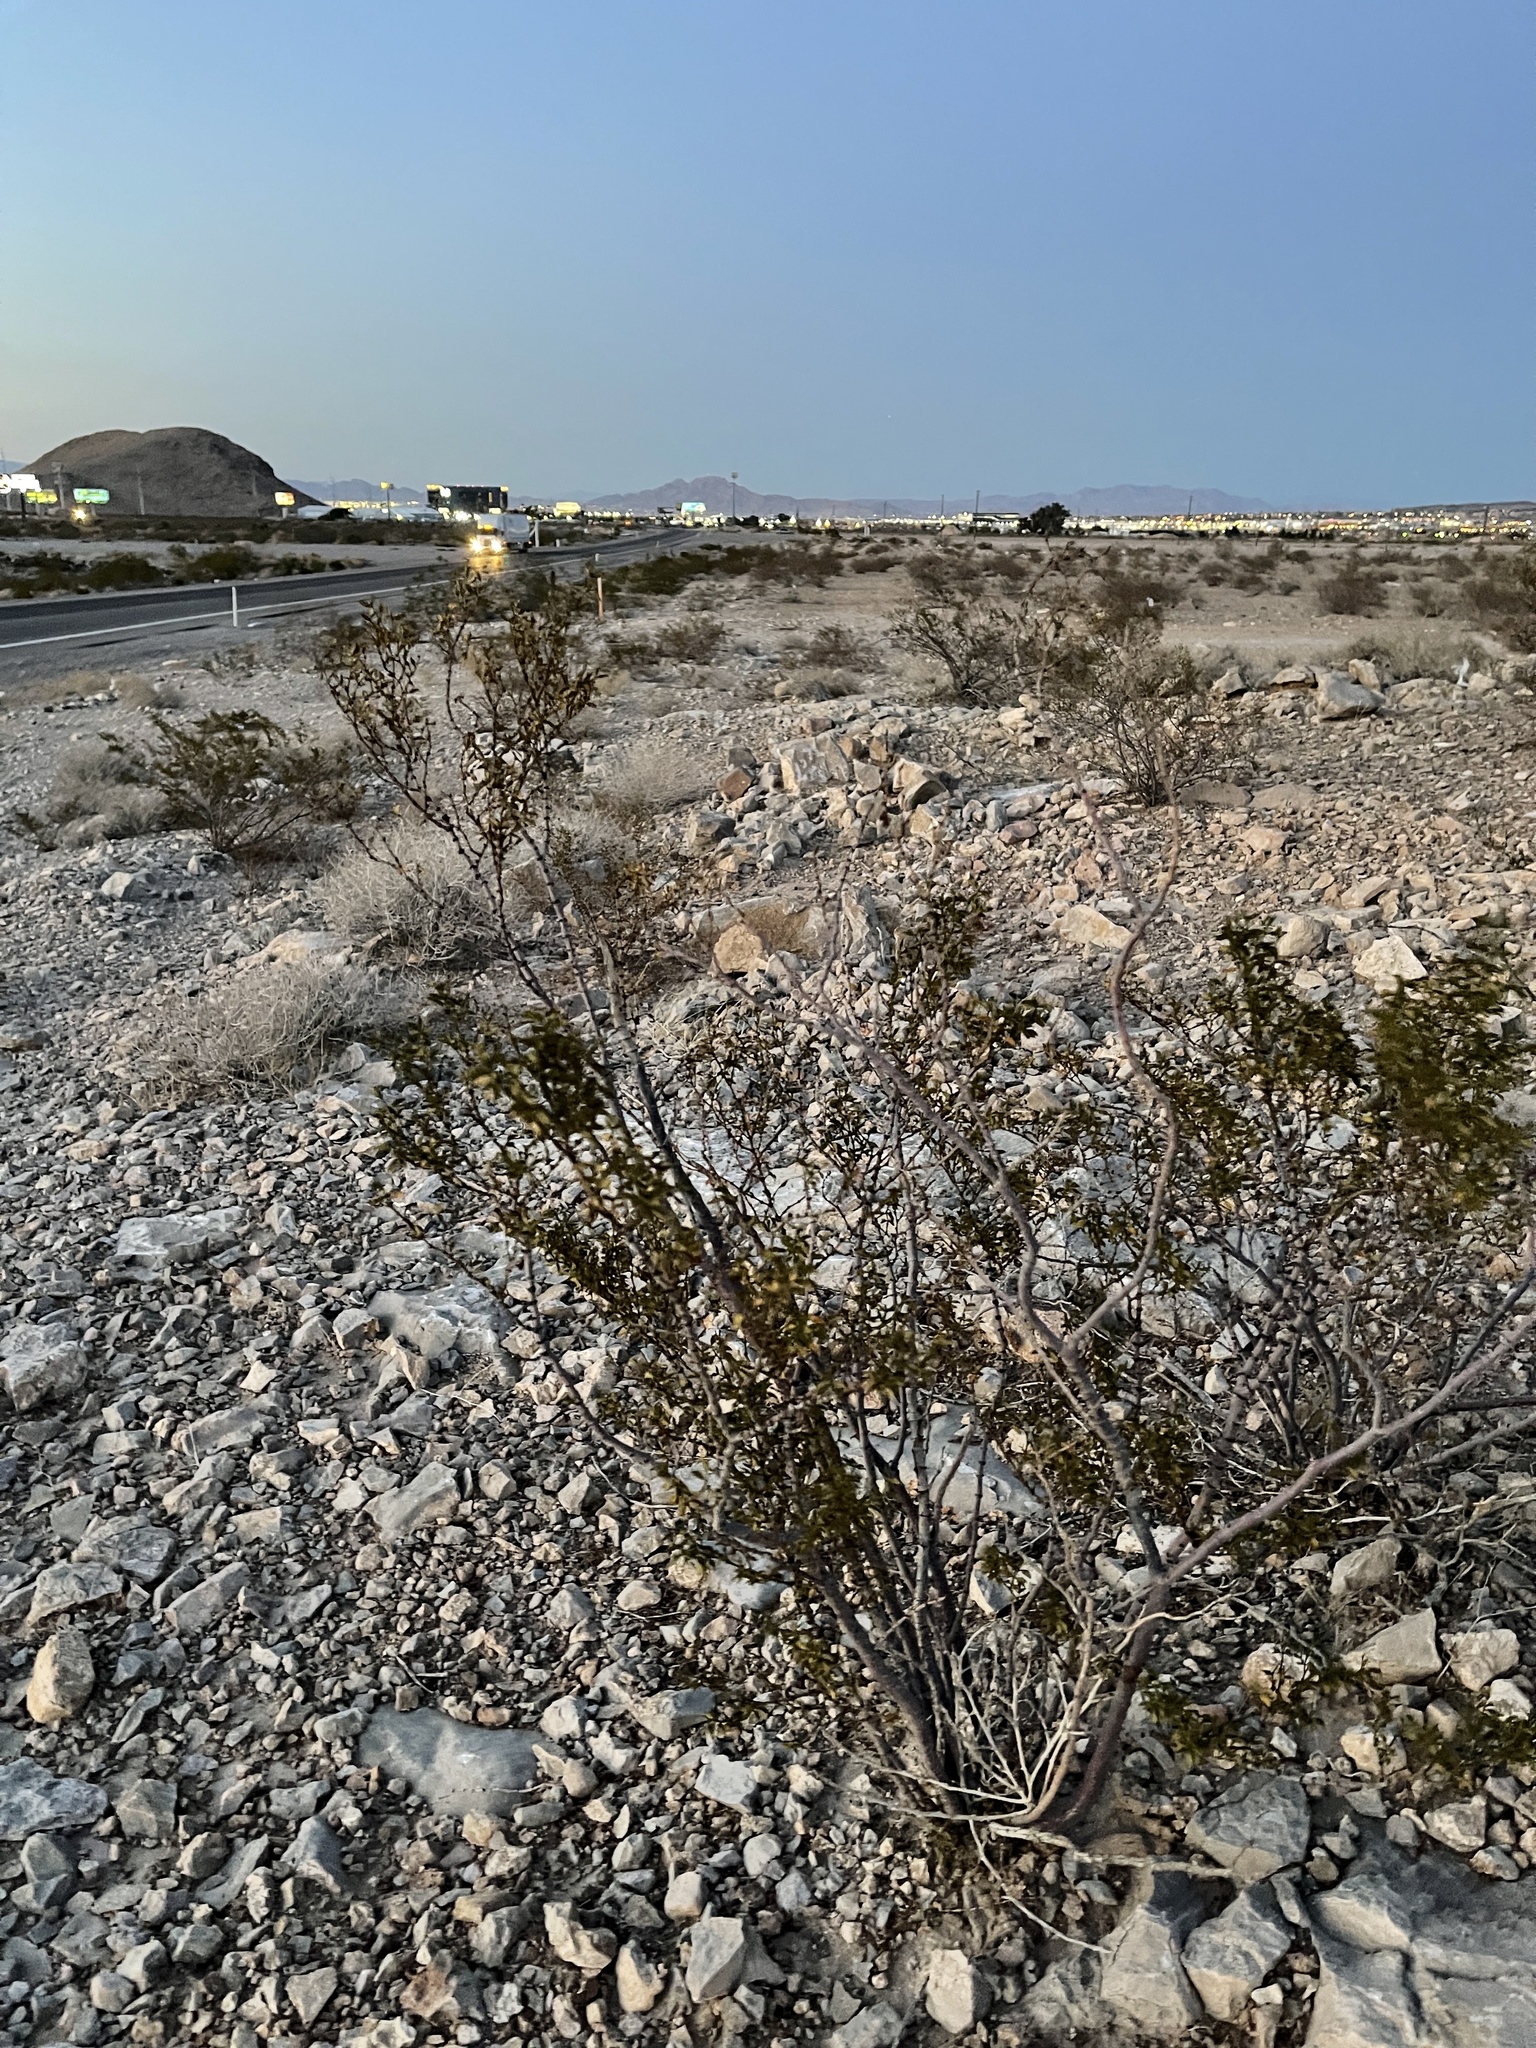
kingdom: Plantae
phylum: Tracheophyta
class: Magnoliopsida
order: Zygophyllales
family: Zygophyllaceae
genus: Larrea
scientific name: Larrea tridentata
